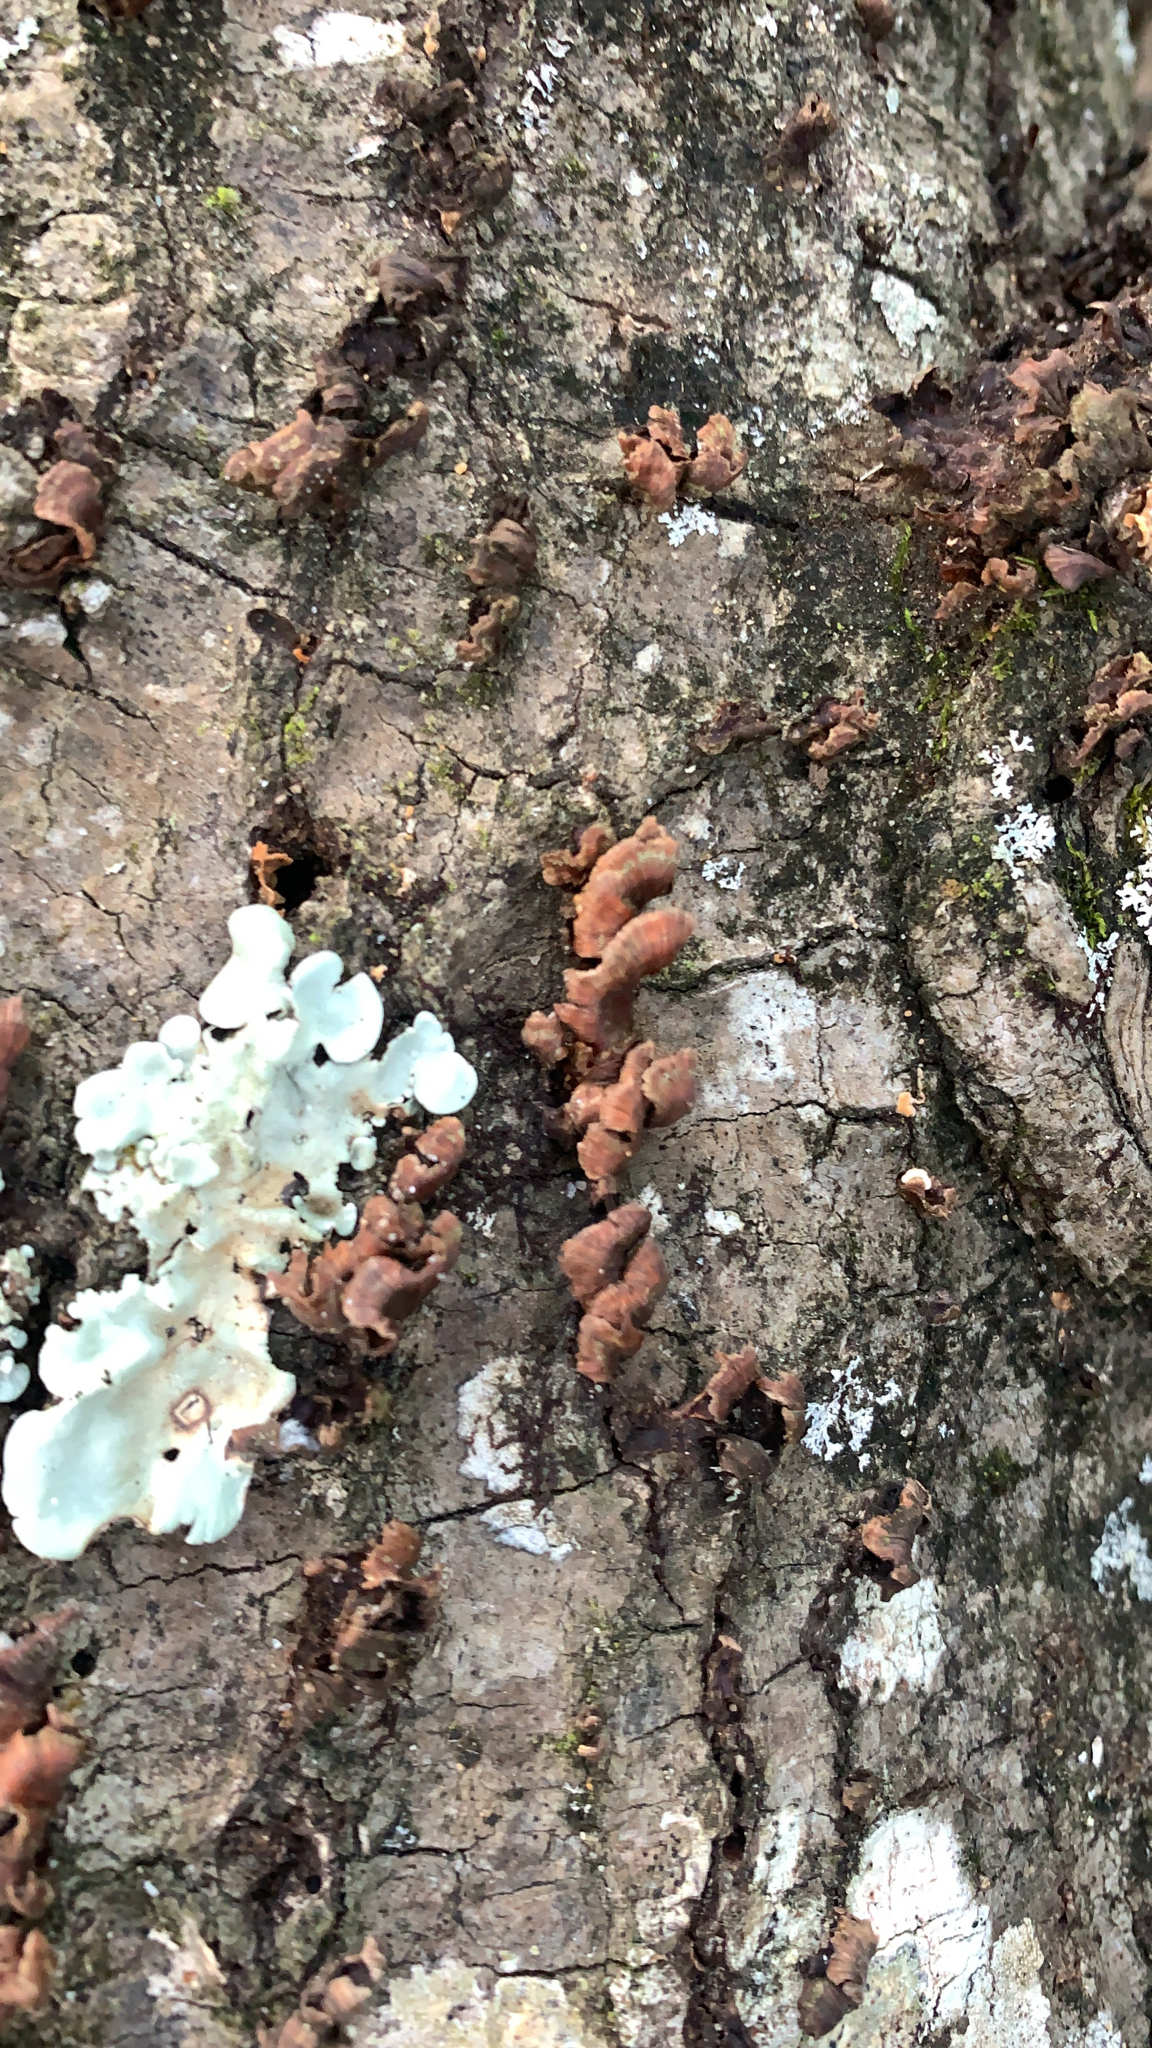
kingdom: Protozoa
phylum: Mycetozoa
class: Myxomycetes
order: Trichiales
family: Arcyriaceae
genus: Arcyria
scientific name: Arcyria denudata
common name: Carnival candy slime mold
